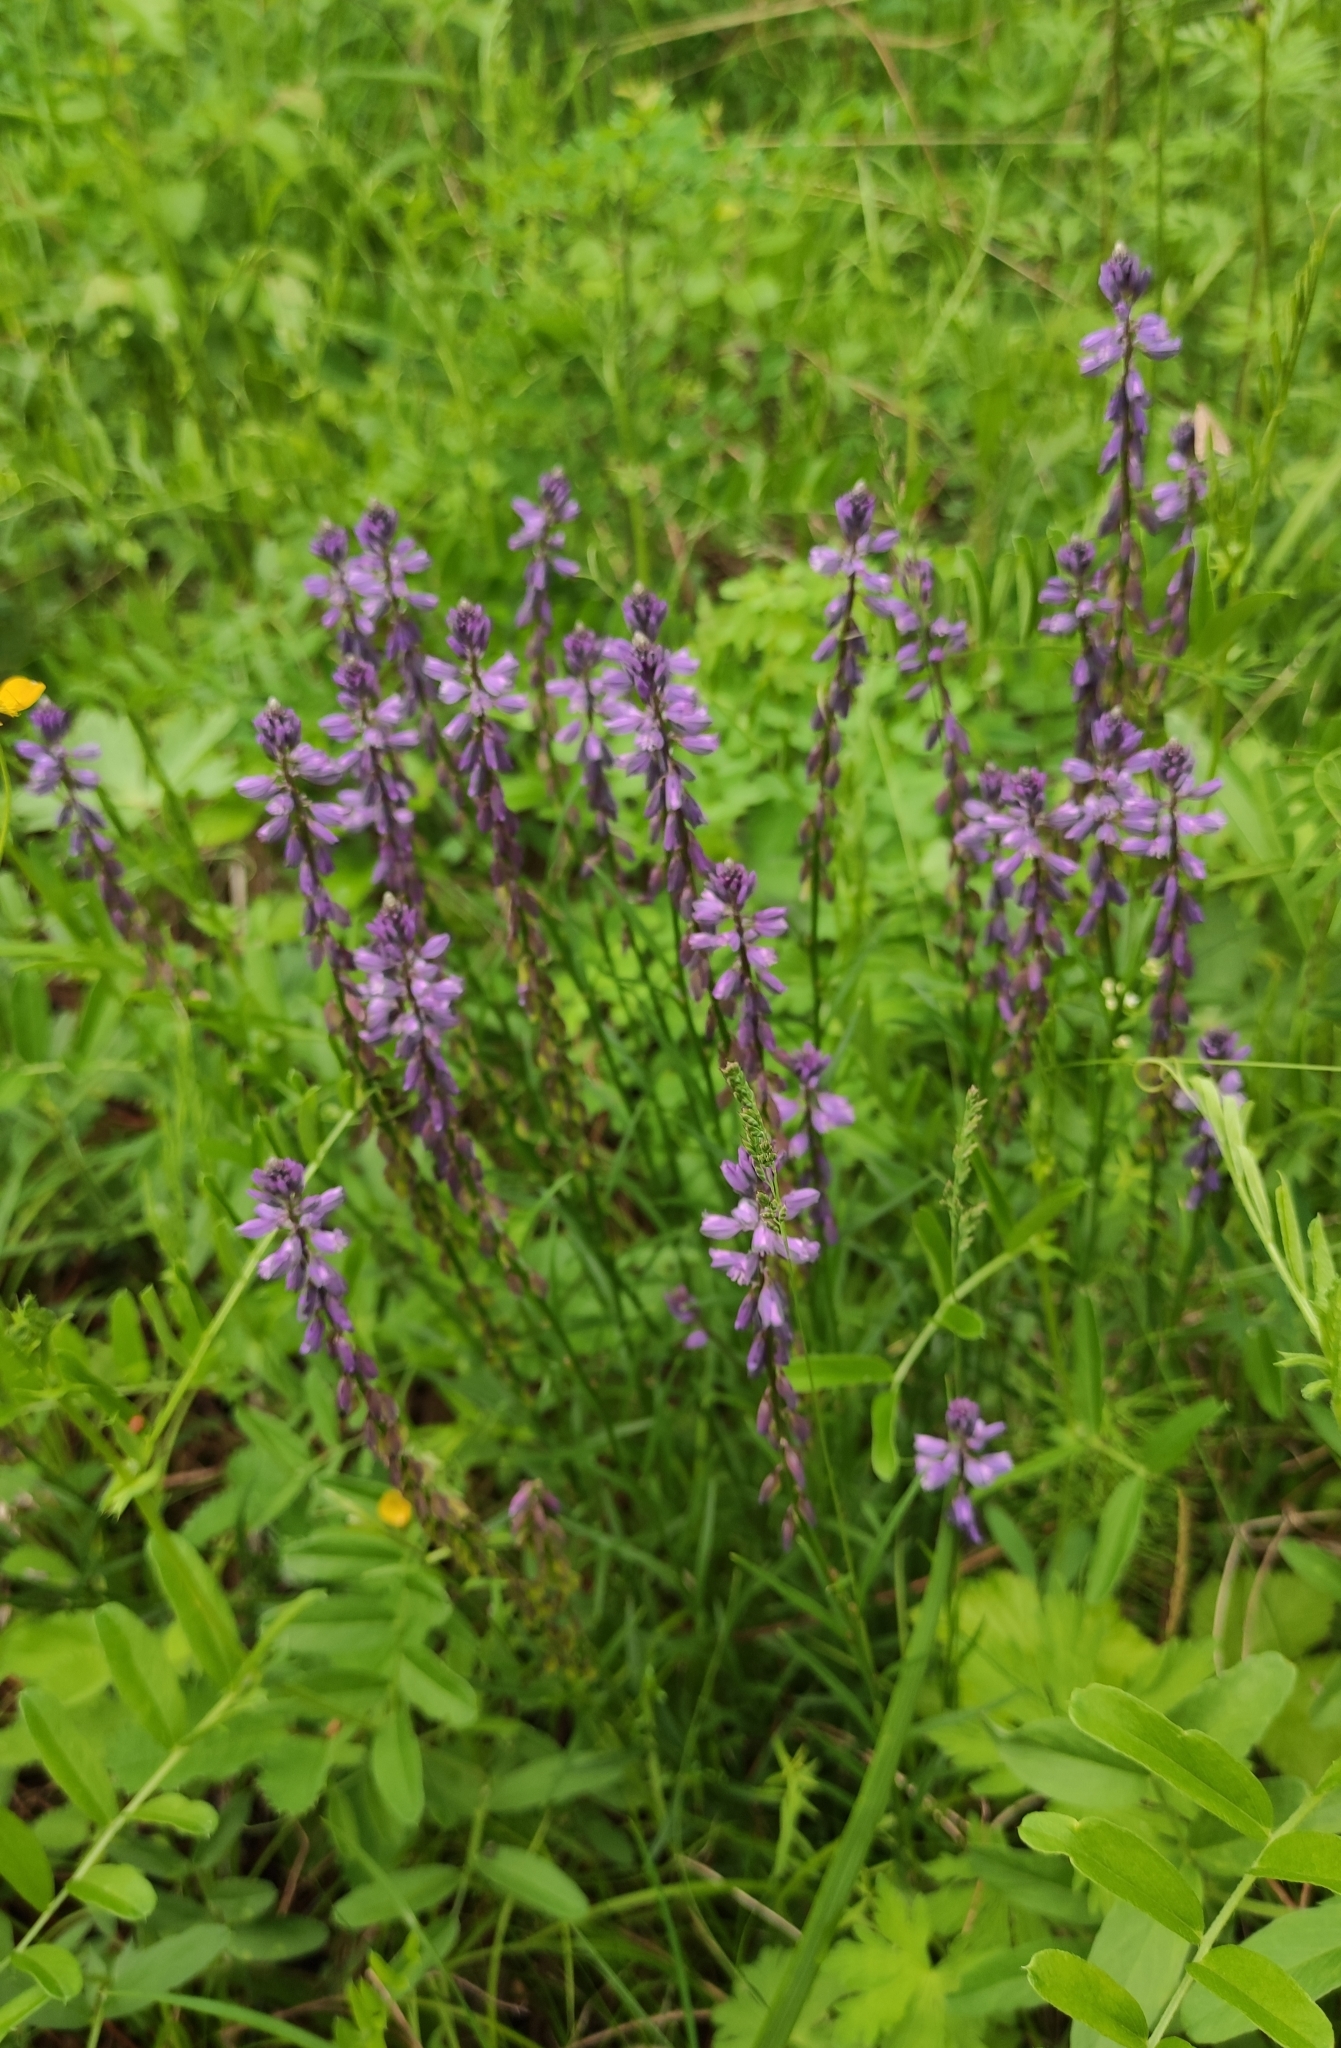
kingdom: Plantae
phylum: Tracheophyta
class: Magnoliopsida
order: Fabales
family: Polygalaceae
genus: Polygala
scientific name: Polygala comosa
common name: Tufted milkwort
